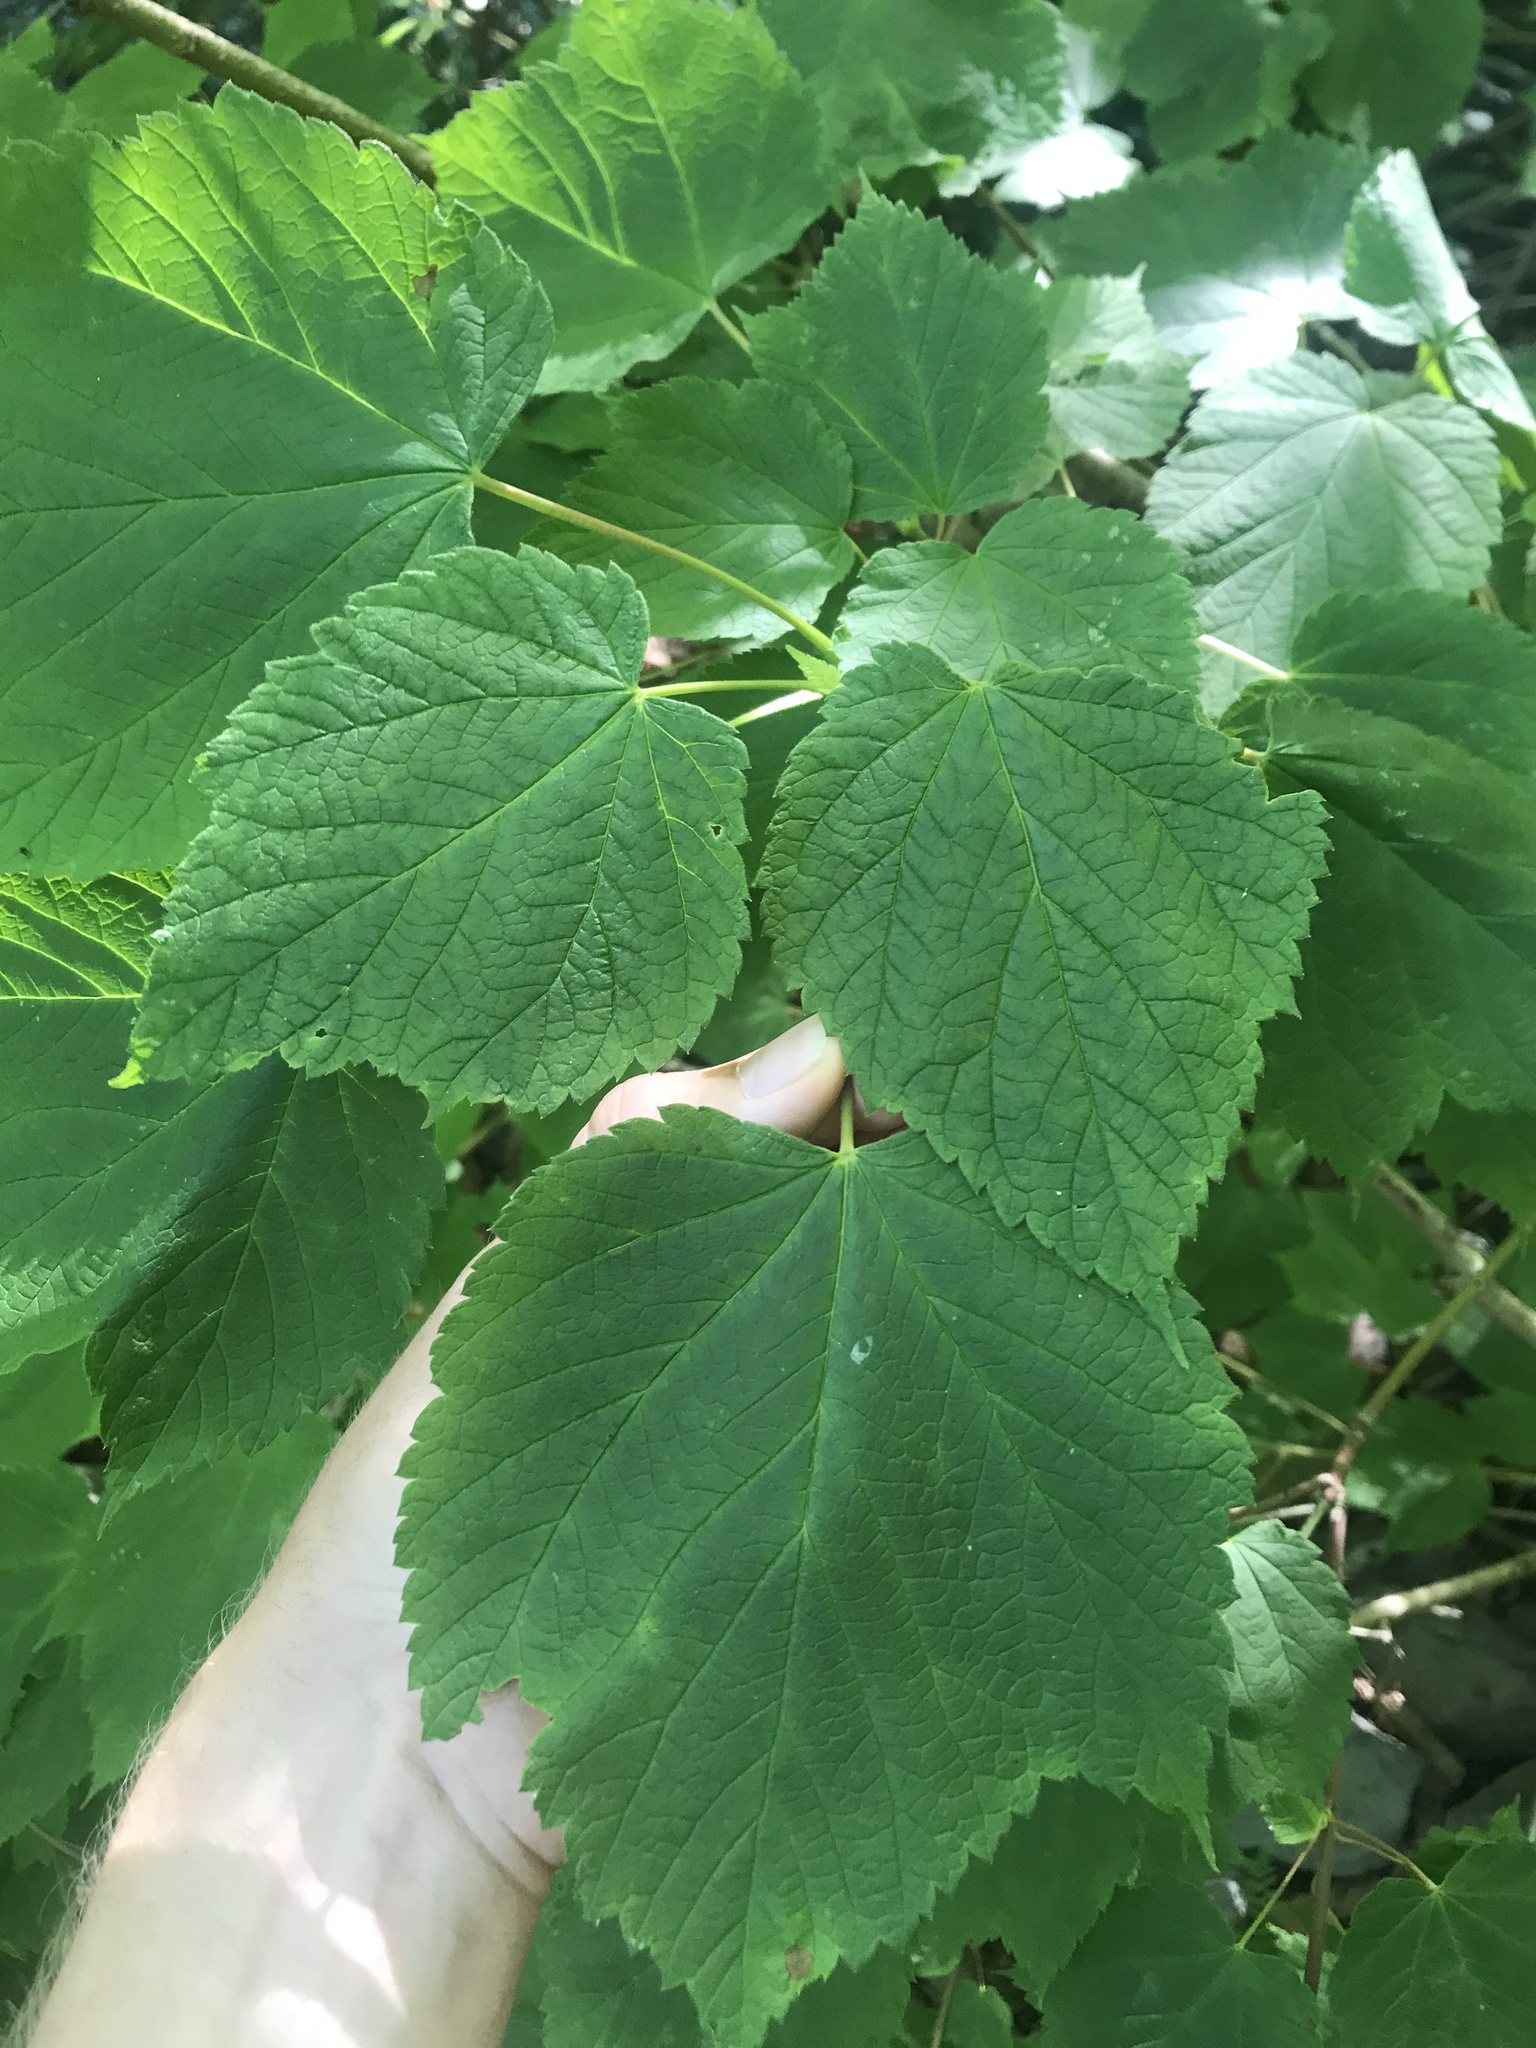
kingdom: Plantae
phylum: Tracheophyta
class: Magnoliopsida
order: Sapindales
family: Sapindaceae
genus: Acer
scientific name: Acer spicatum
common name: Mountain maple
